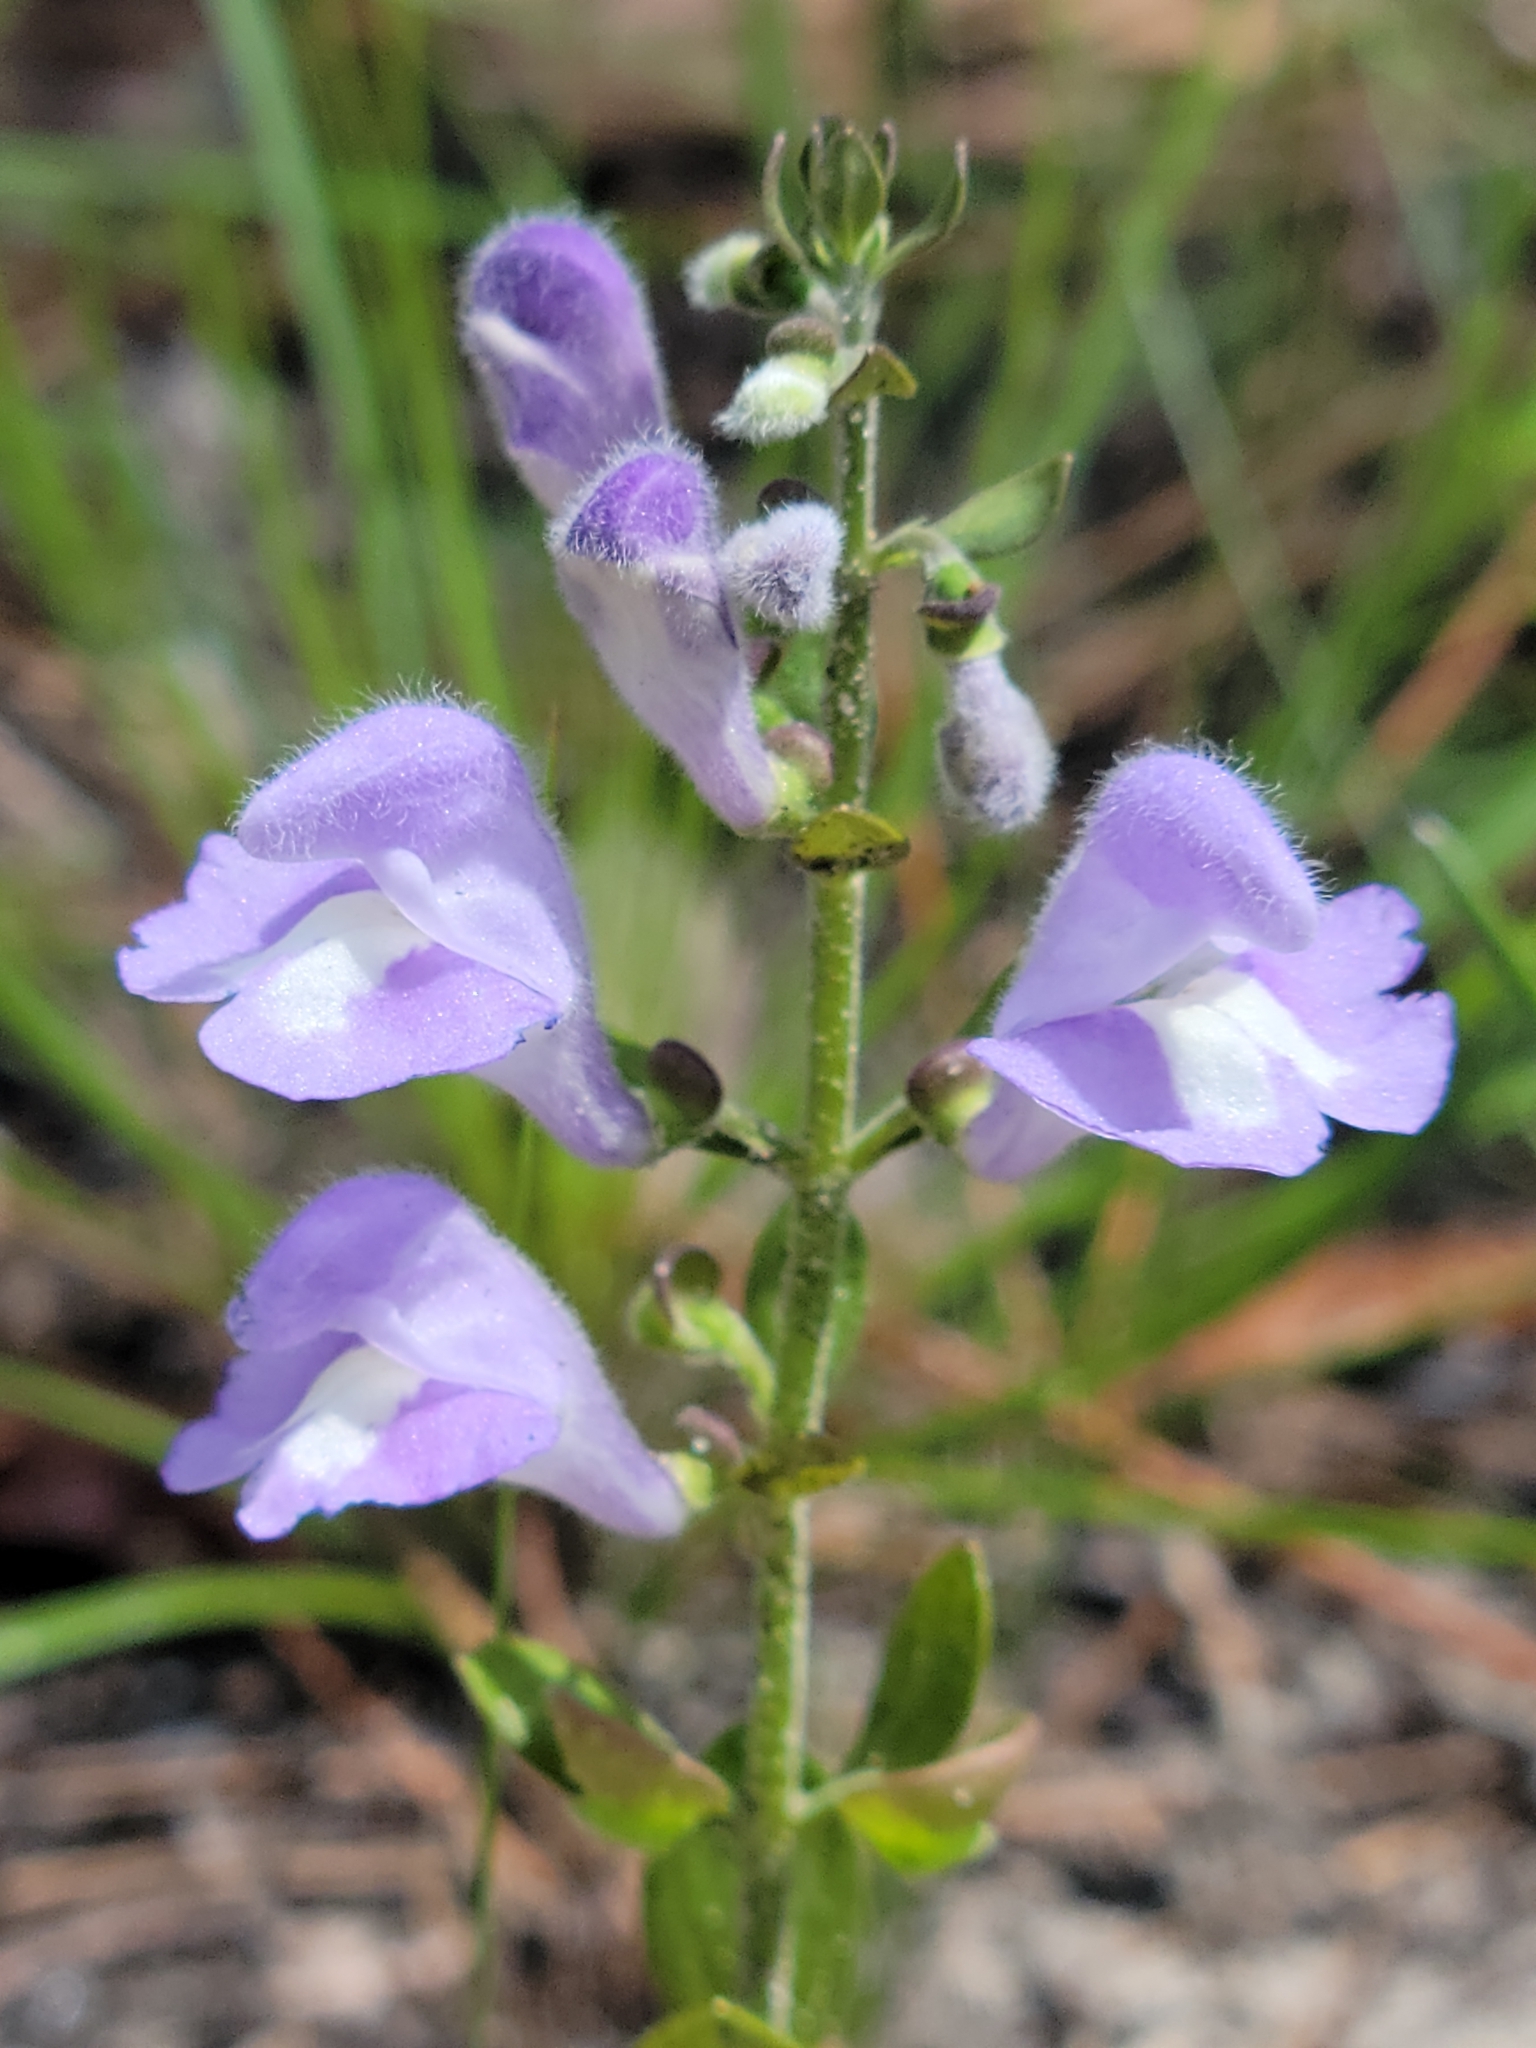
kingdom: Plantae
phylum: Tracheophyta
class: Magnoliopsida
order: Lamiales
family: Lamiaceae
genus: Scutellaria
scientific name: Scutellaria arenicola
